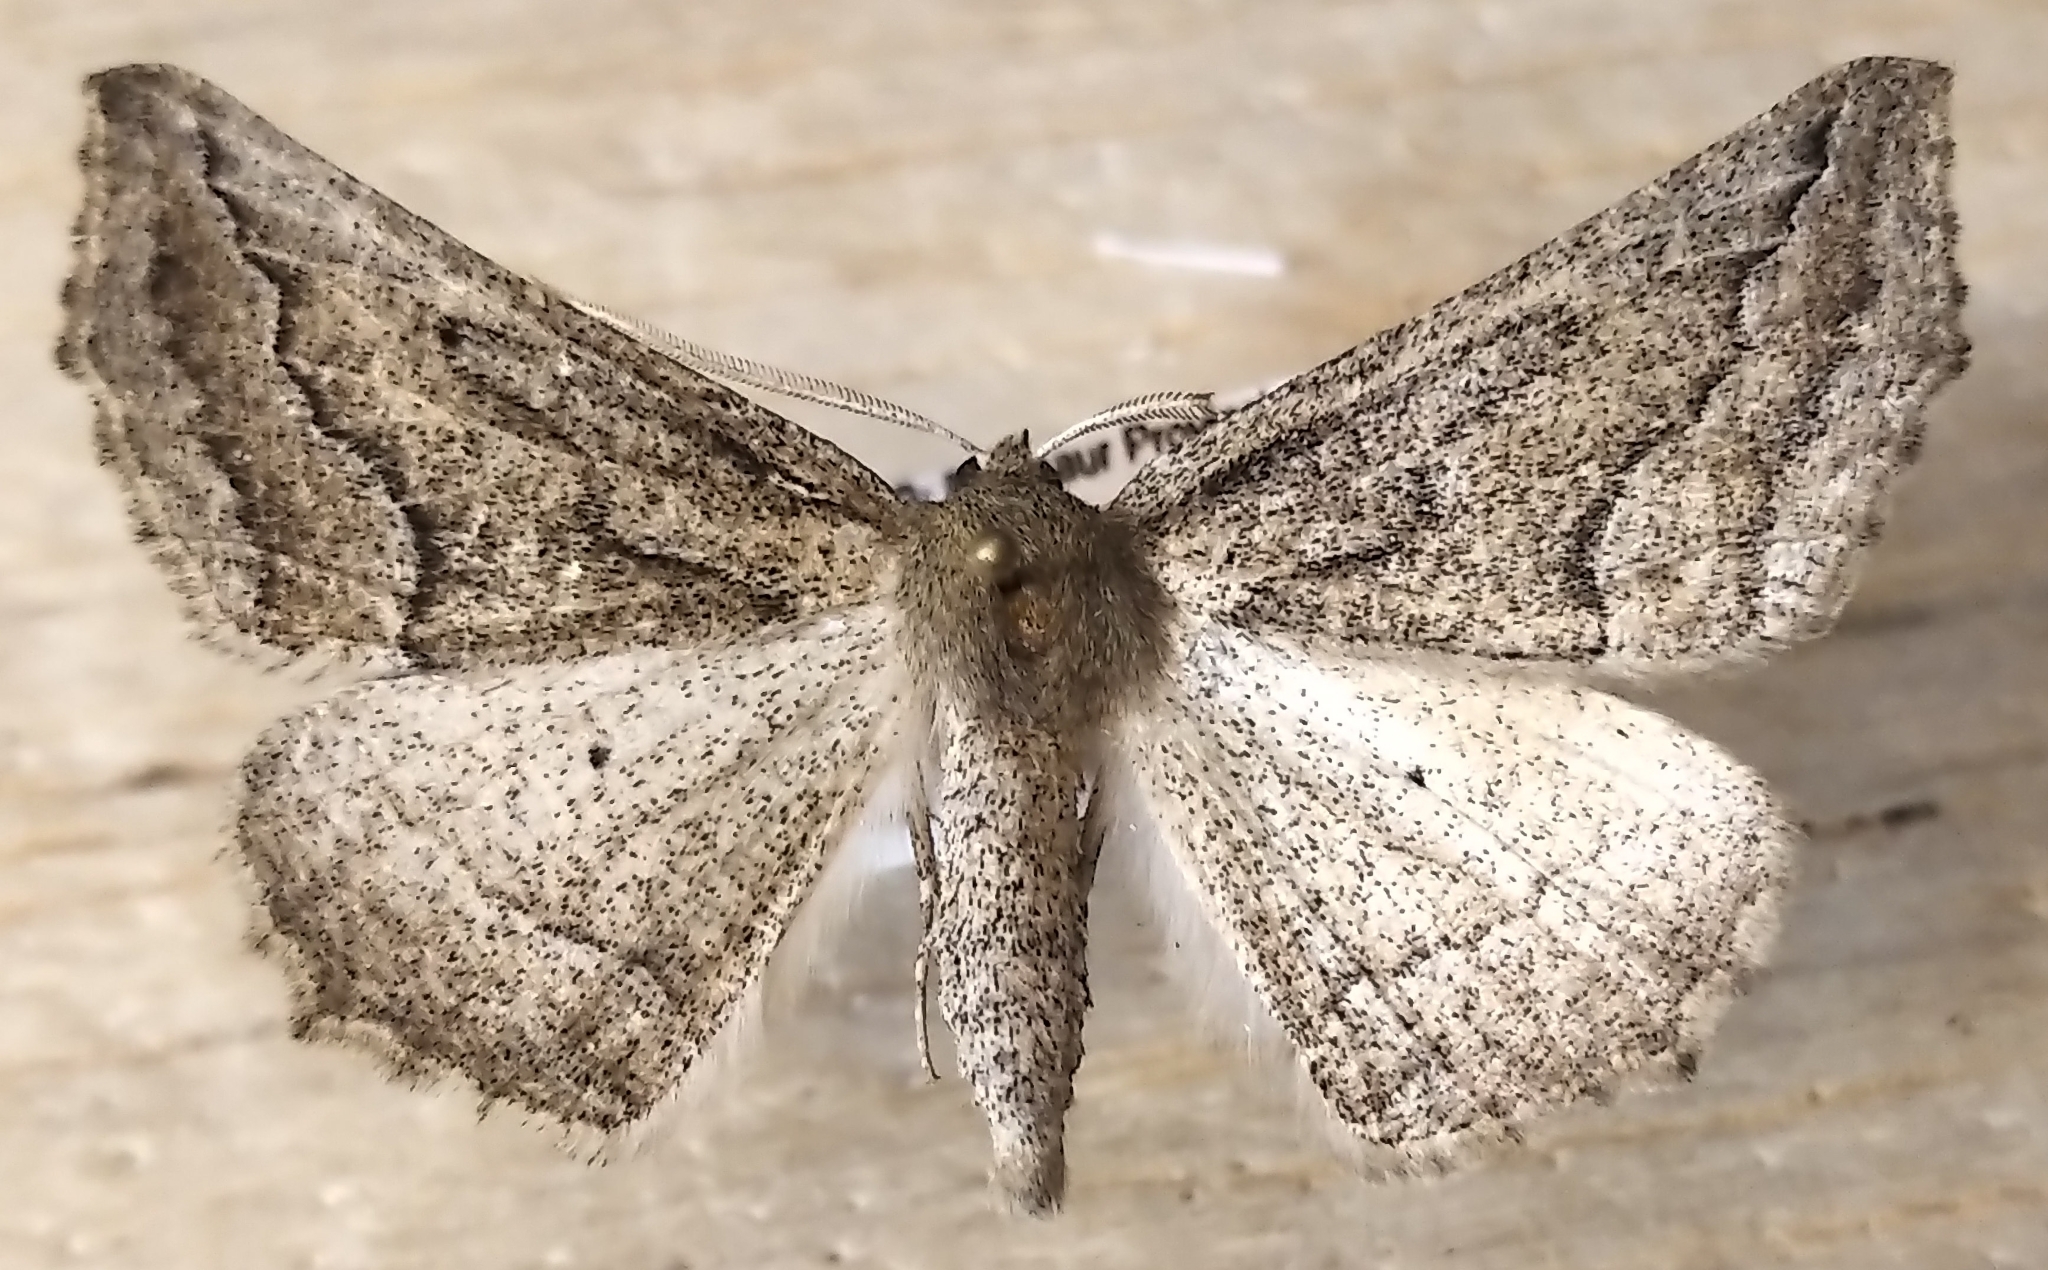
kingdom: Animalia
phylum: Arthropoda
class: Insecta
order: Lepidoptera
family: Geometridae
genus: Tetracis
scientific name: Tetracis formosa
